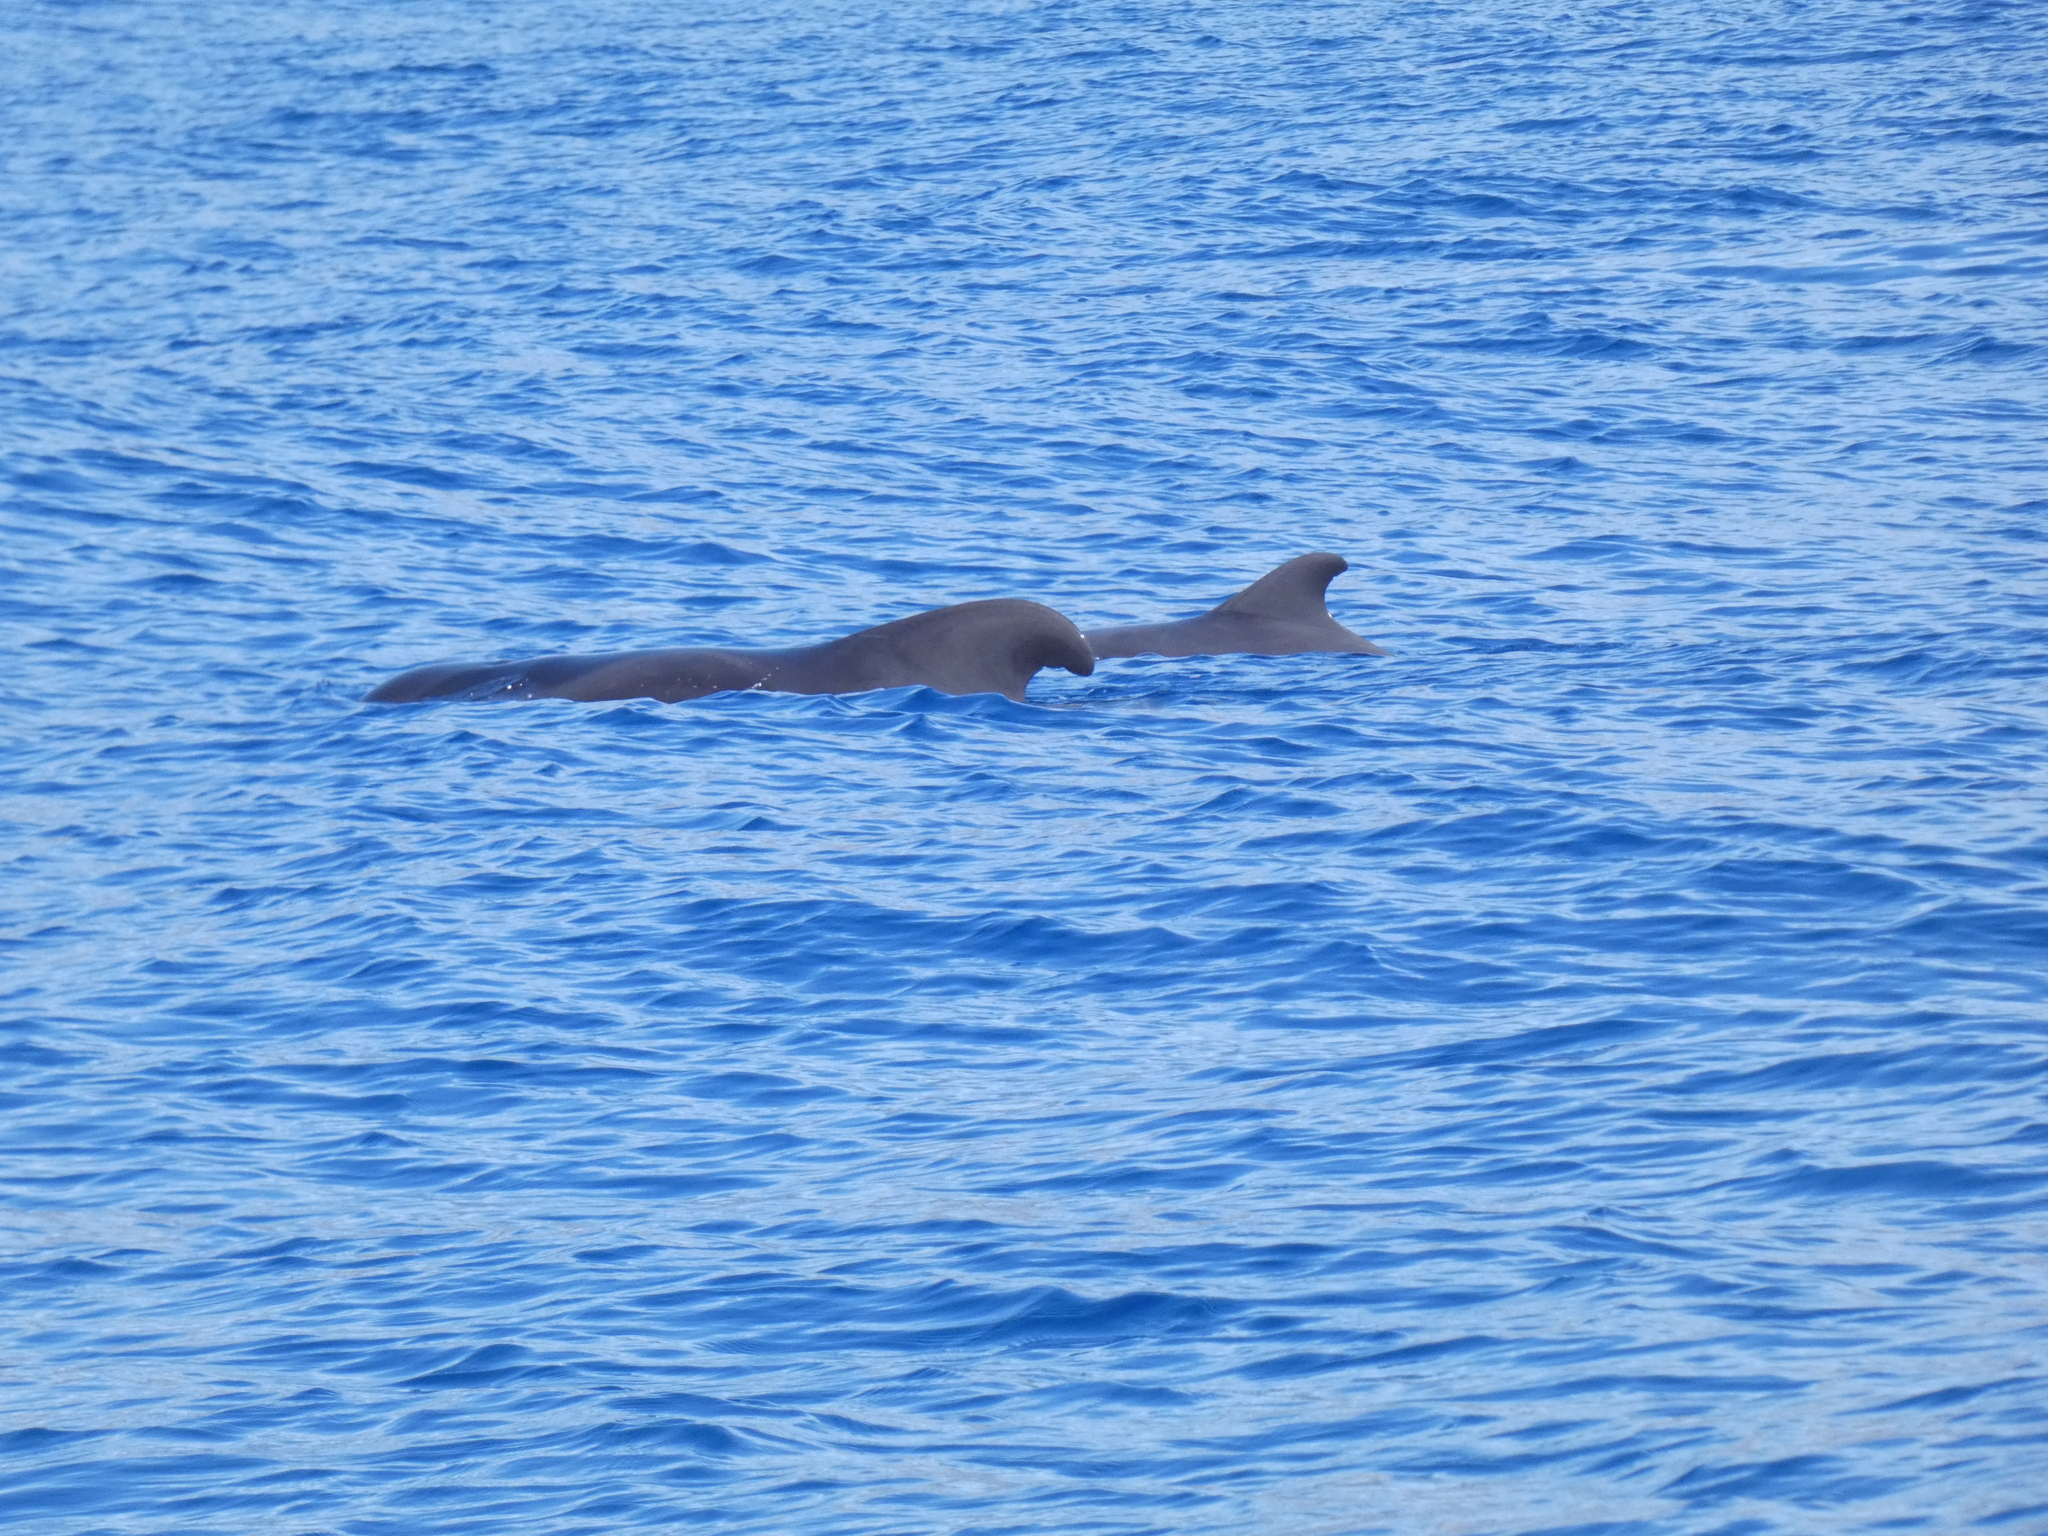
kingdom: Animalia
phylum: Chordata
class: Mammalia
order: Cetacea
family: Delphinidae
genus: Globicephala
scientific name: Globicephala macrorhynchus
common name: Short-finned pilot whale
